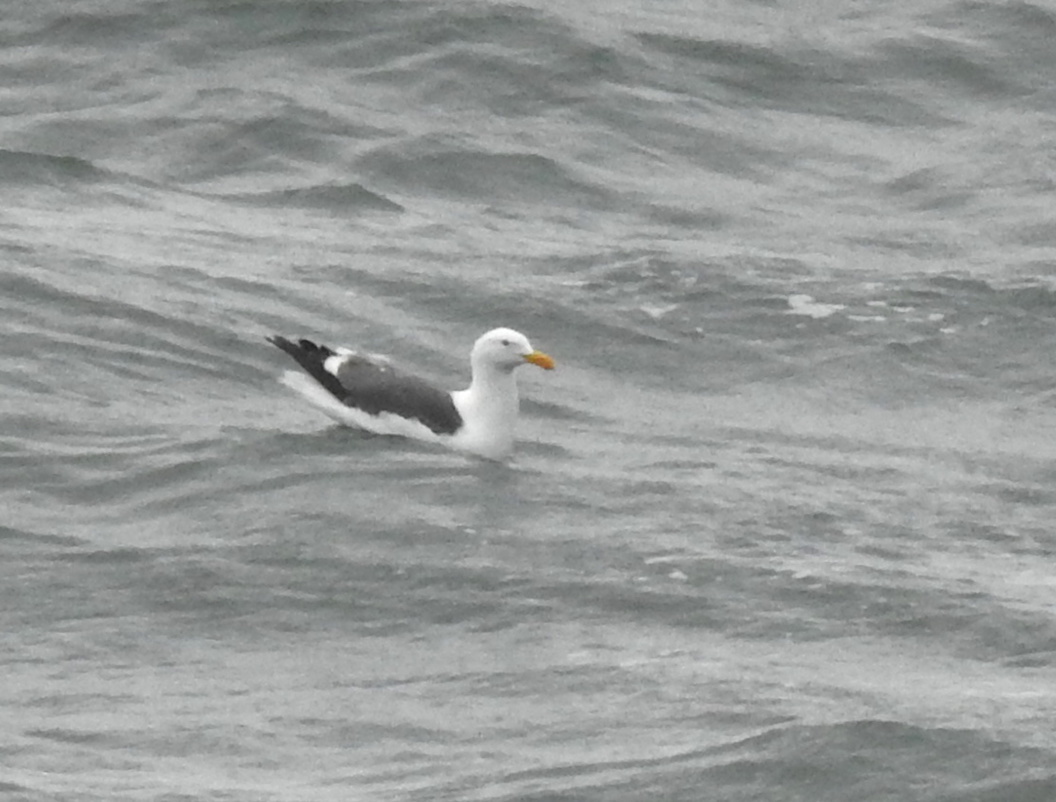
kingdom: Animalia
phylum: Chordata
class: Aves
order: Charadriiformes
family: Laridae
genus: Larus
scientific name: Larus occidentalis
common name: Western gull
